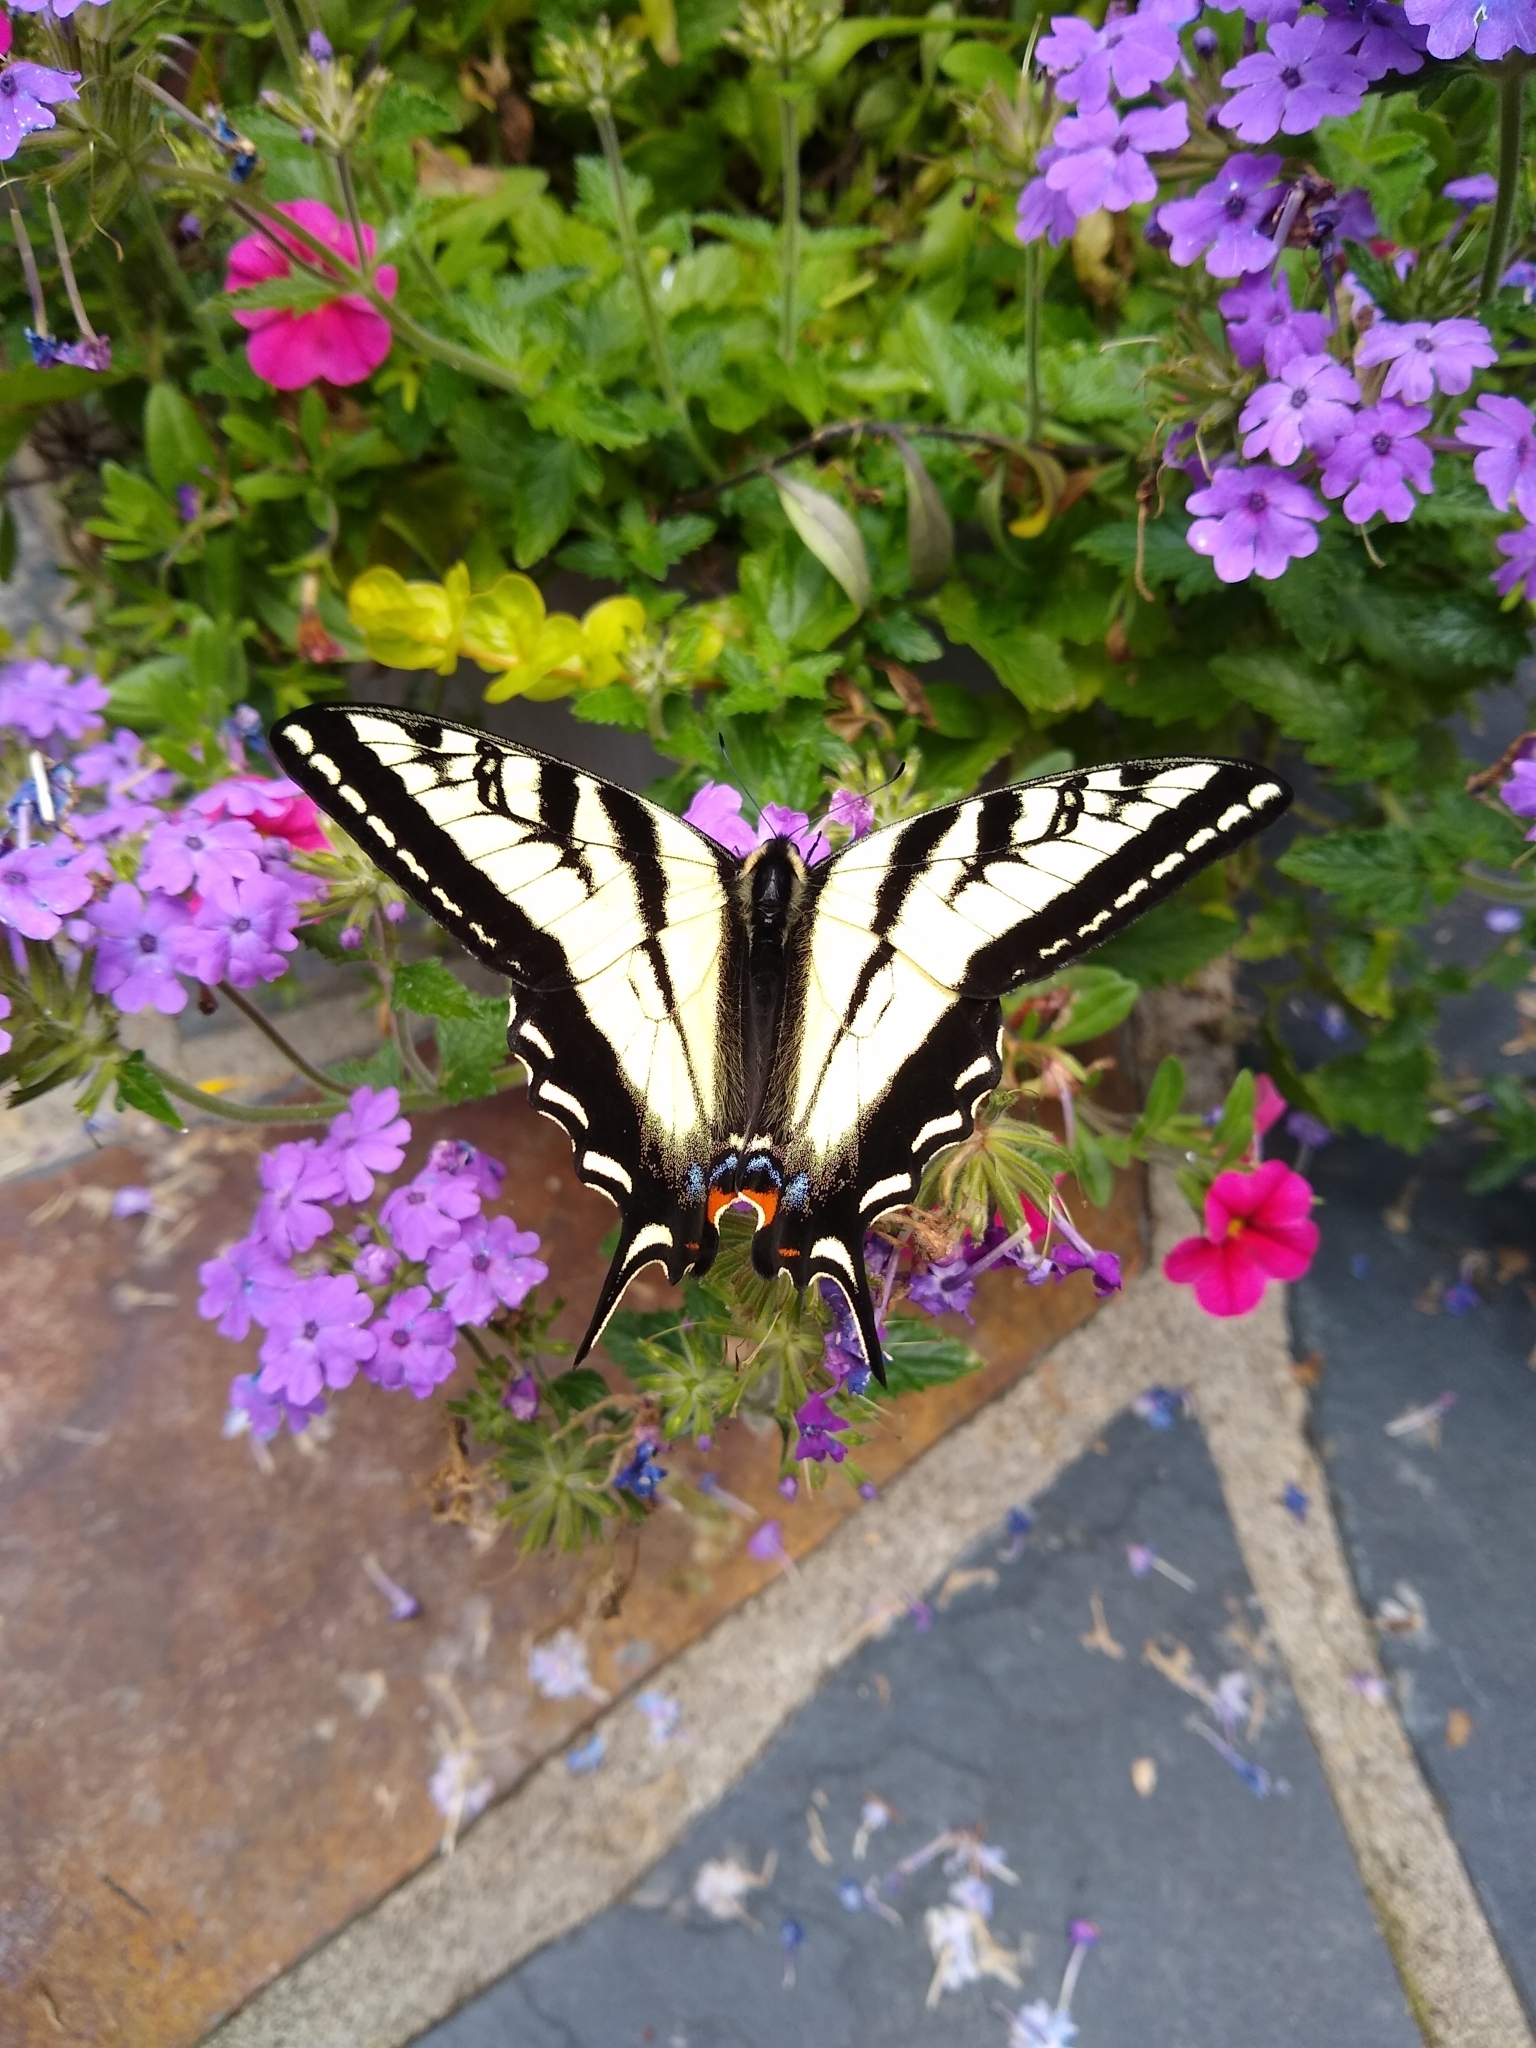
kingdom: Animalia
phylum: Arthropoda
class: Insecta
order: Lepidoptera
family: Papilionidae
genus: Papilio
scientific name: Papilio rutulus
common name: Western tiger swallowtail
